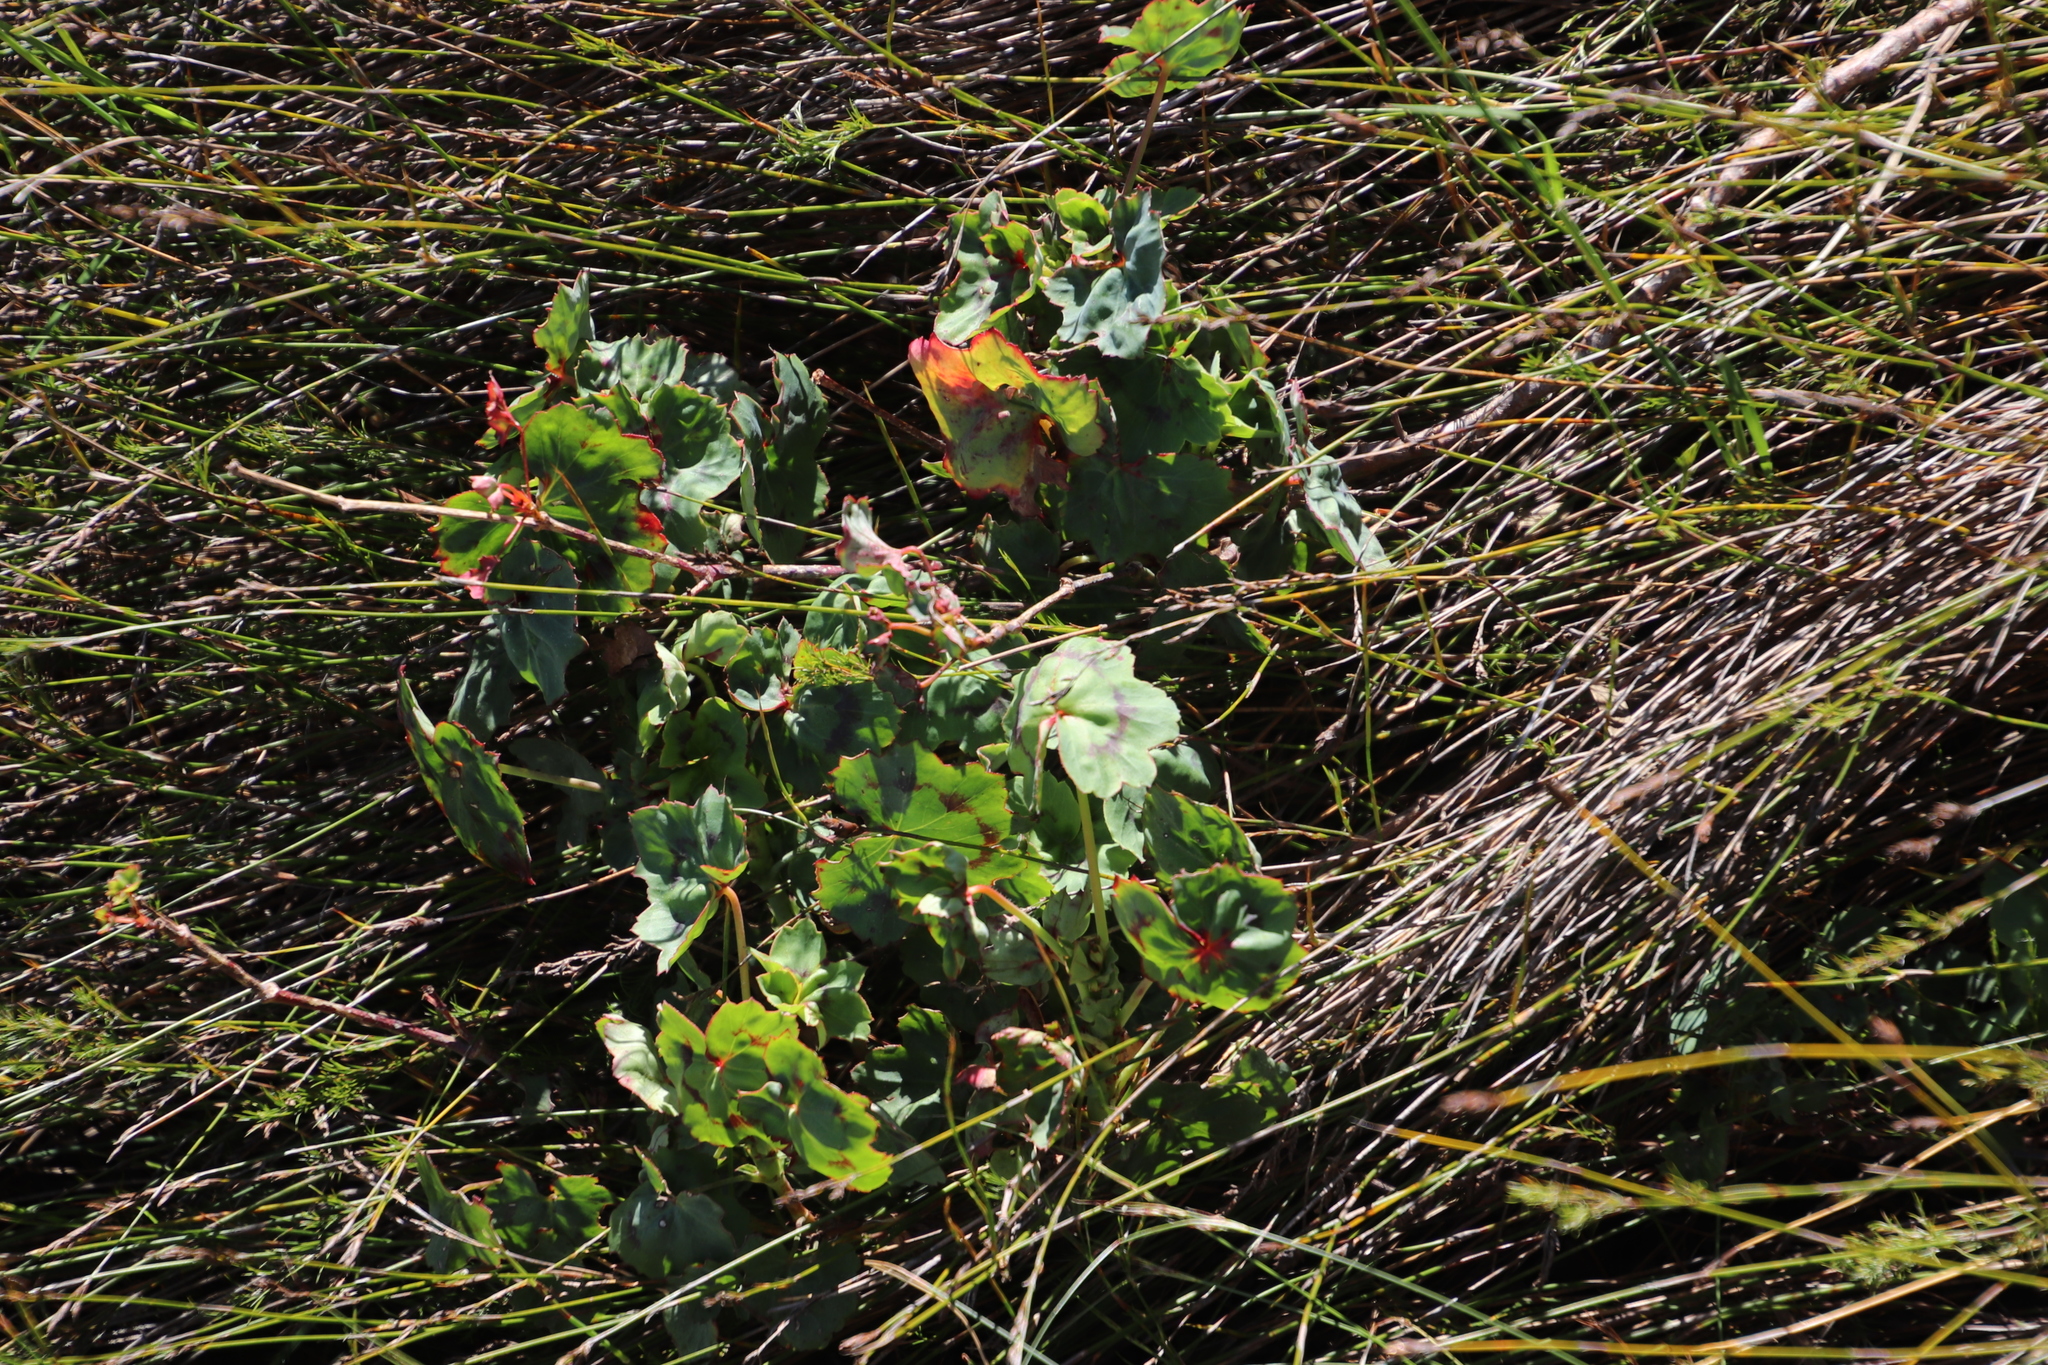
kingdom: Plantae
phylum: Tracheophyta
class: Magnoliopsida
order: Geraniales
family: Geraniaceae
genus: Pelargonium
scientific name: Pelargonium tabulare
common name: Table mountain pelargonium
